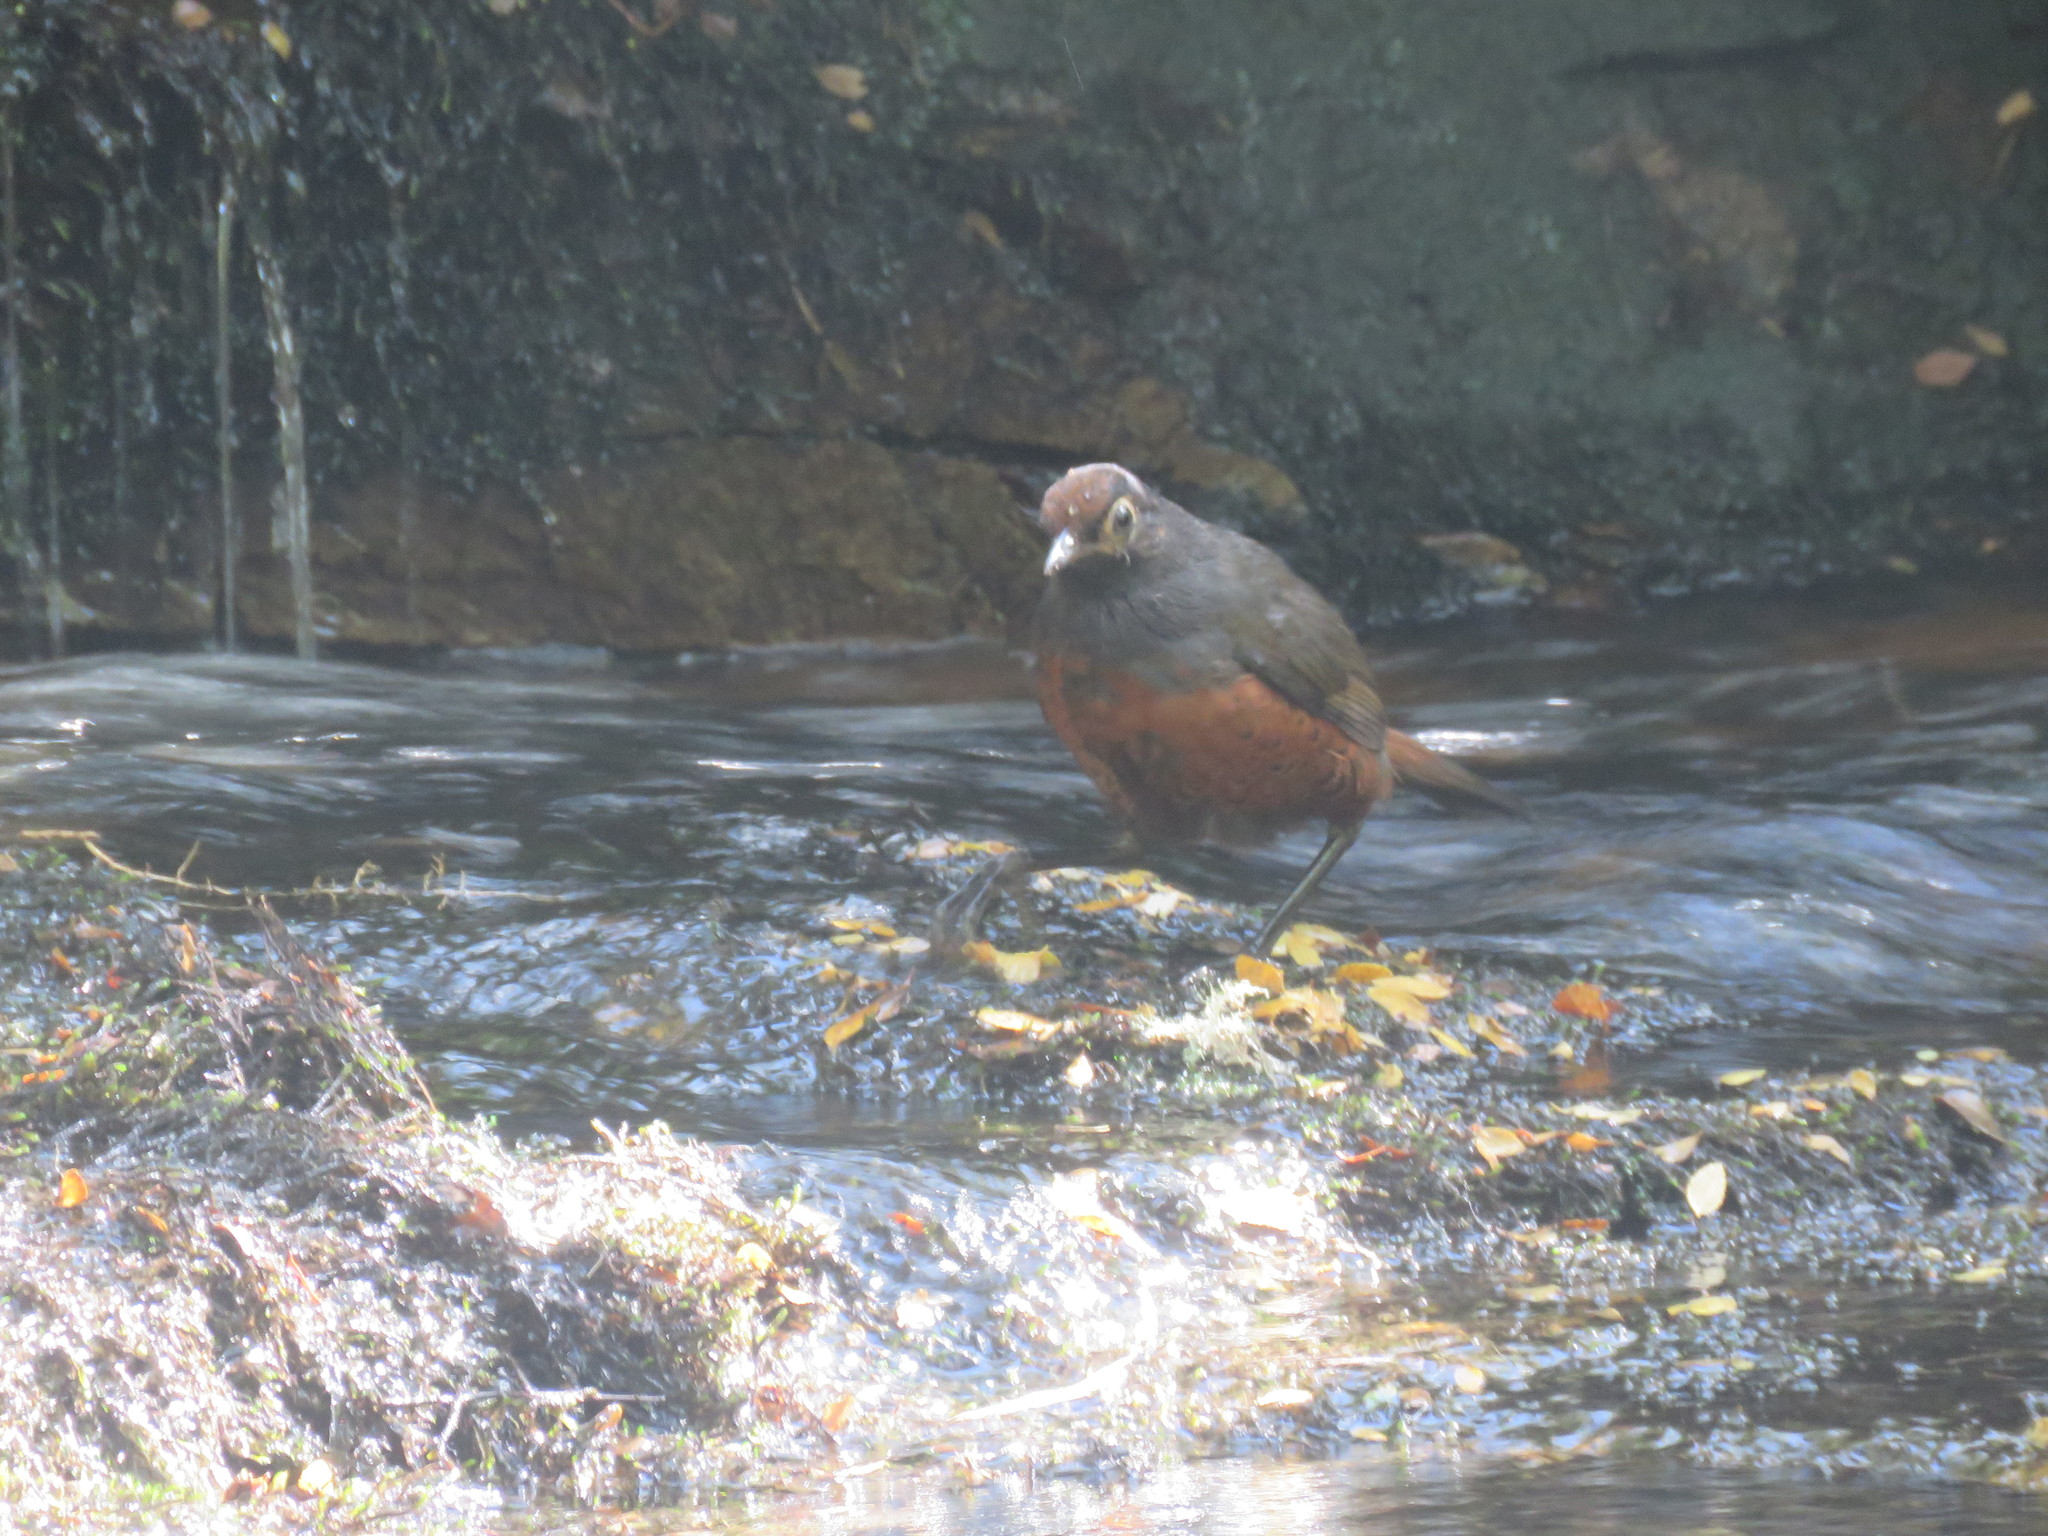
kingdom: Animalia
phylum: Chordata
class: Aves
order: Passeriformes
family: Rhinocryptidae
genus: Pteroptochos
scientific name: Pteroptochos tarnii
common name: Black-throated huet-huet
